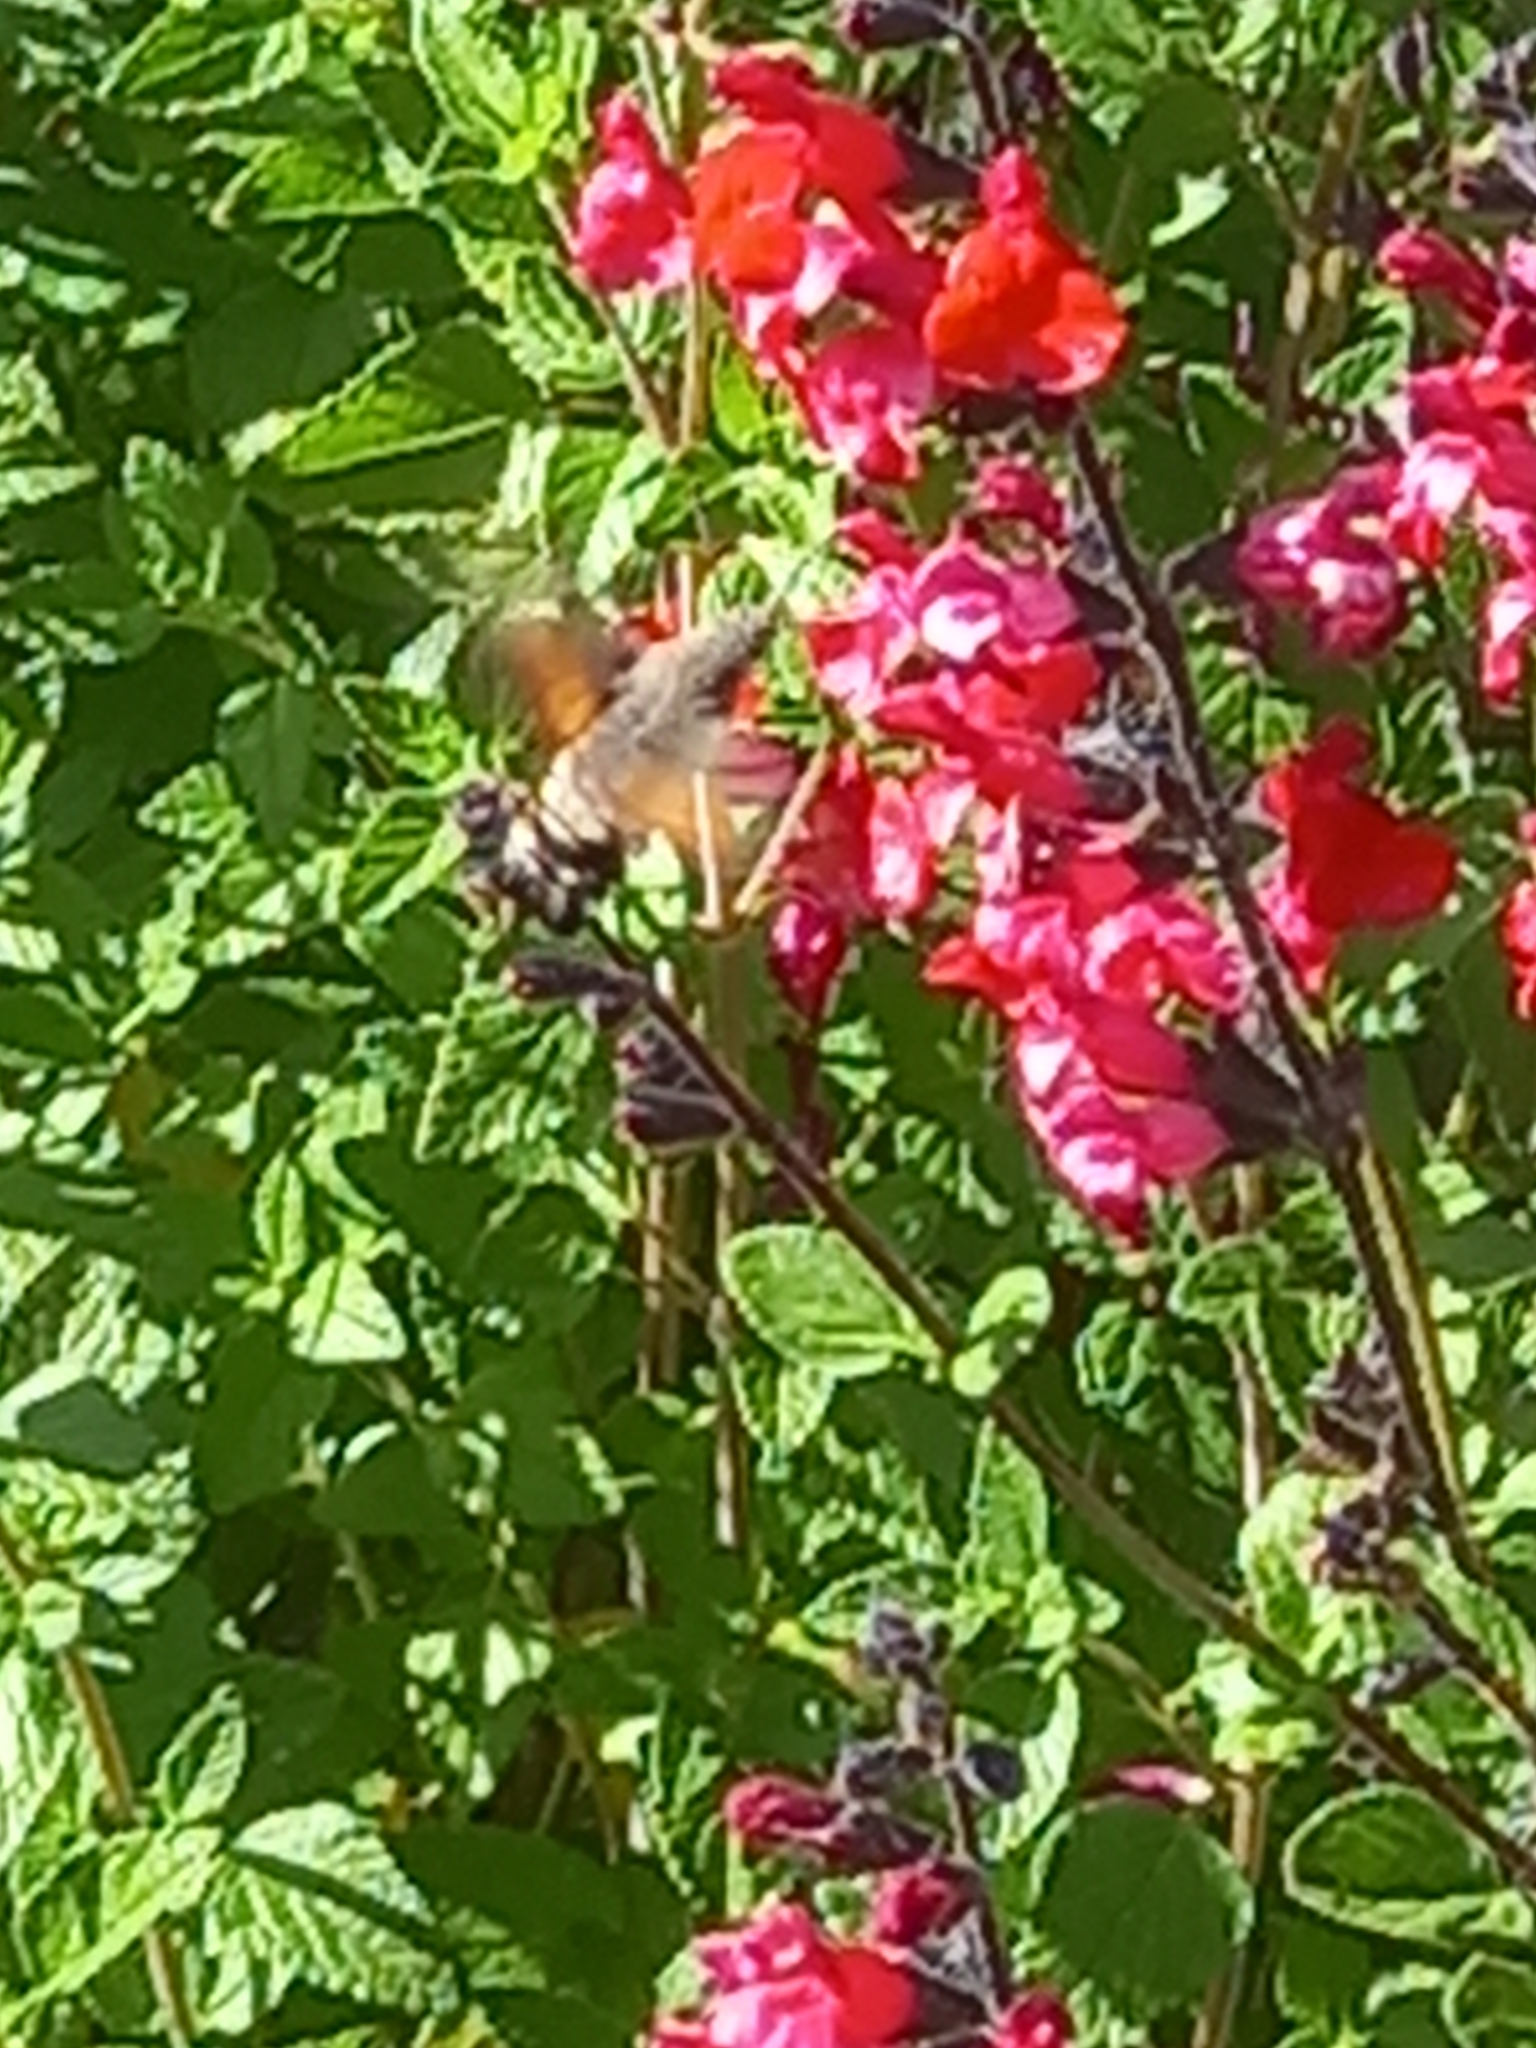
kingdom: Animalia
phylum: Arthropoda
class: Insecta
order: Lepidoptera
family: Sphingidae
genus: Macroglossum
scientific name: Macroglossum stellatarum
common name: Humming-bird hawk-moth
